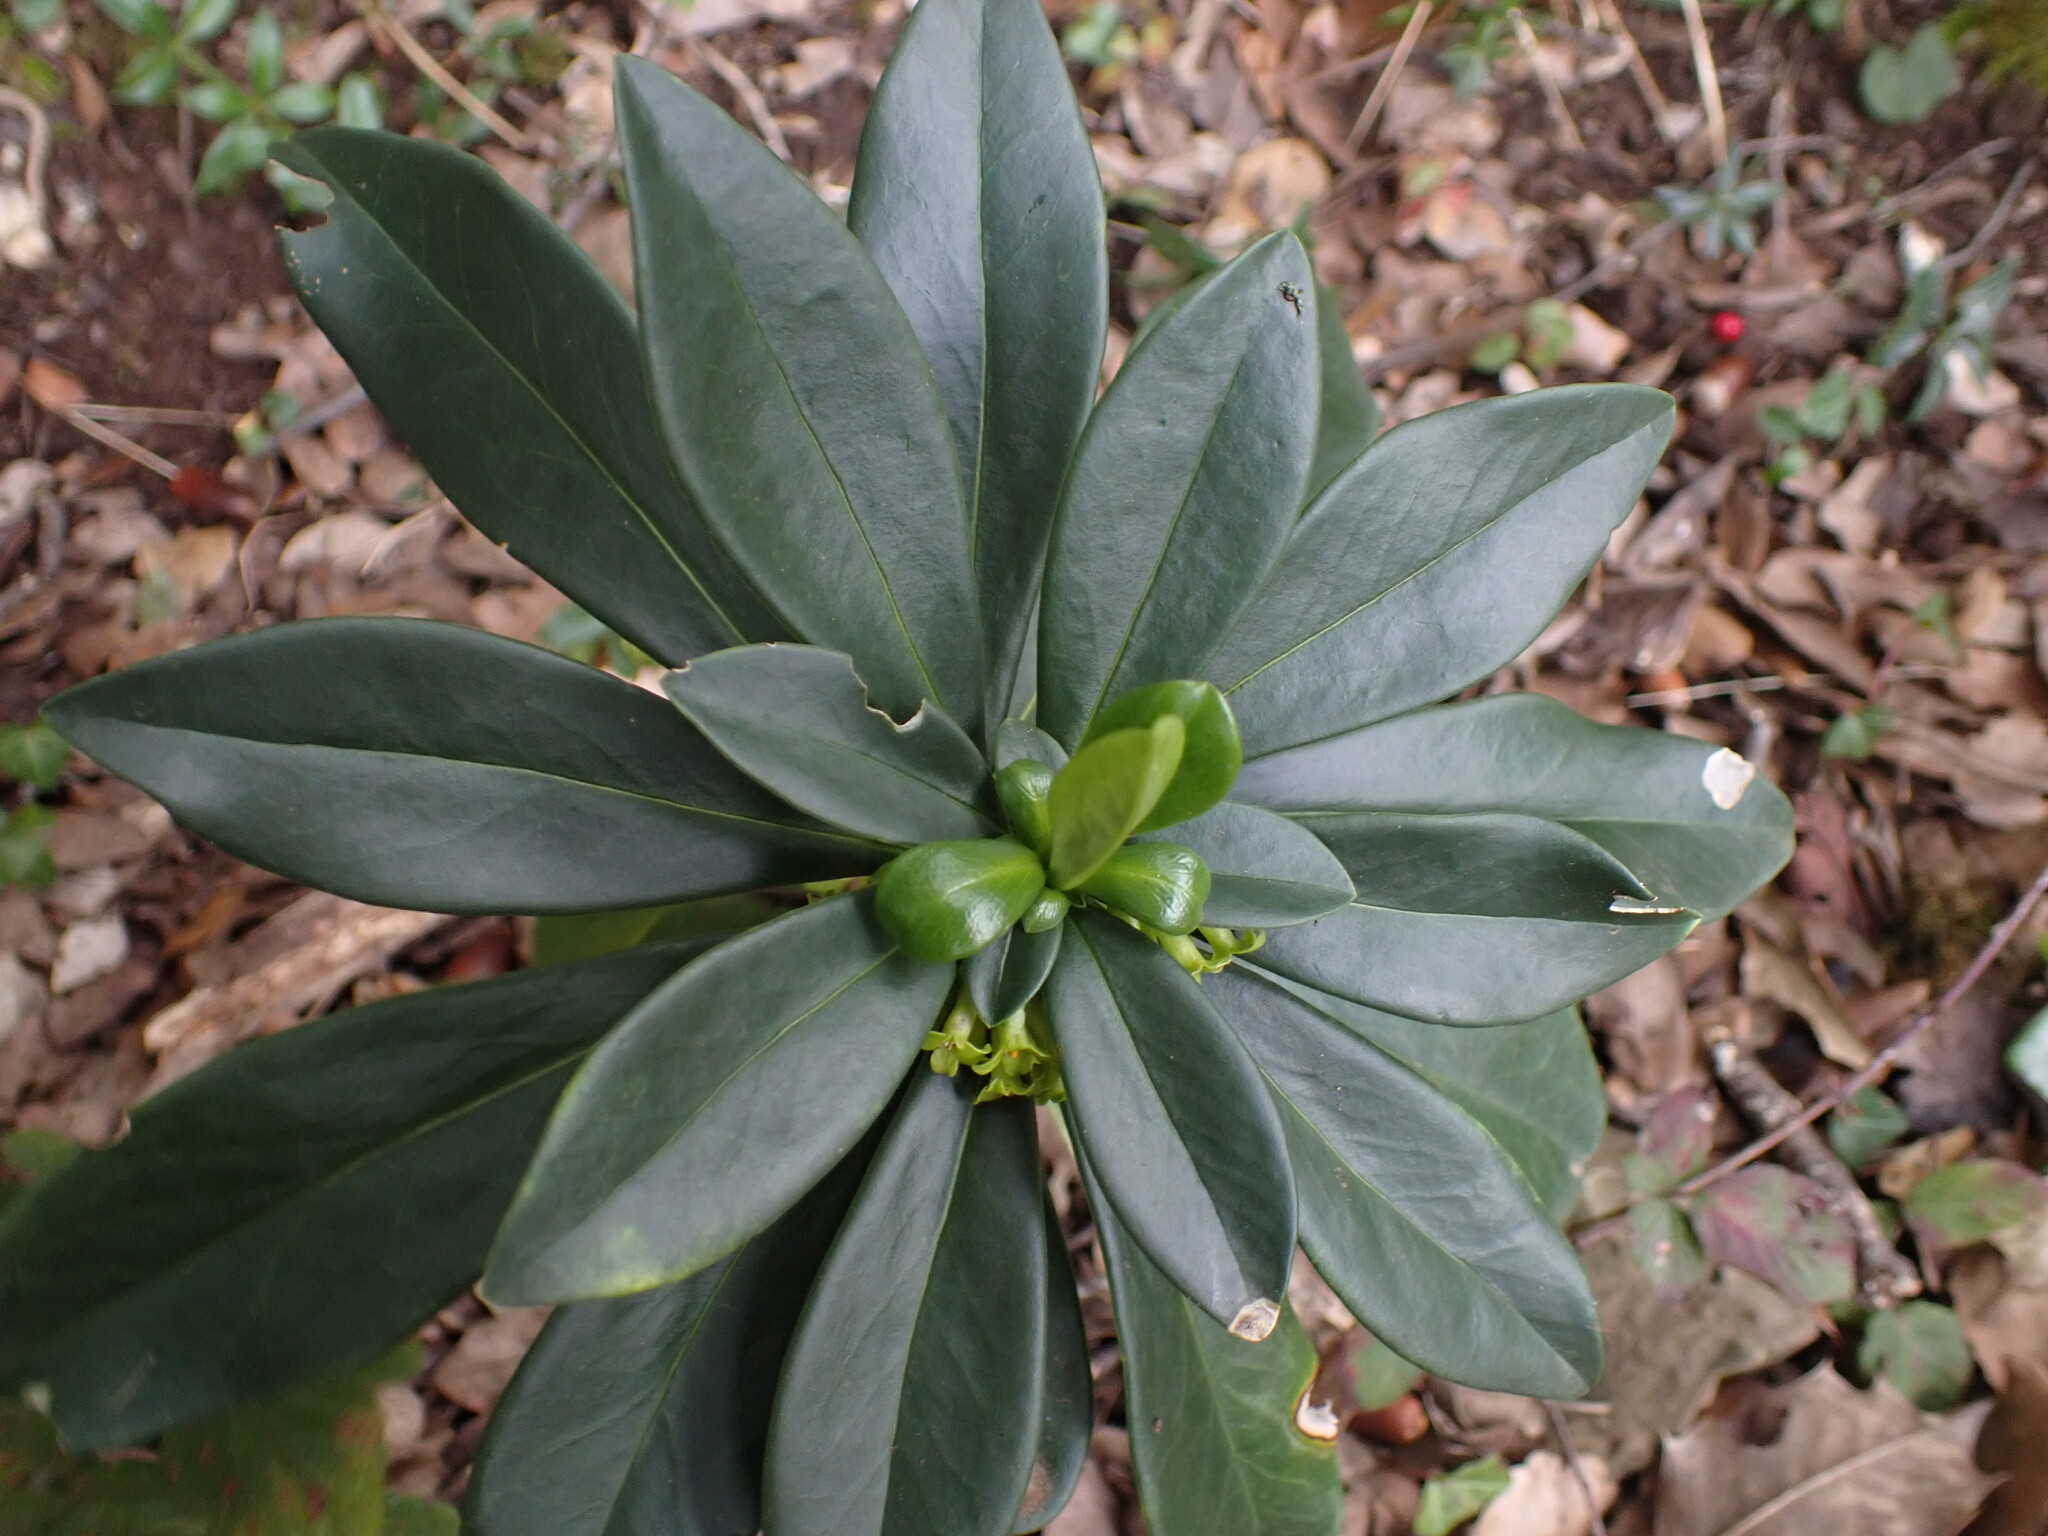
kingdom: Plantae
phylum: Tracheophyta
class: Magnoliopsida
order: Malvales
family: Thymelaeaceae
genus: Daphne
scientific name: Daphne laureola
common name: Spurge-laurel
